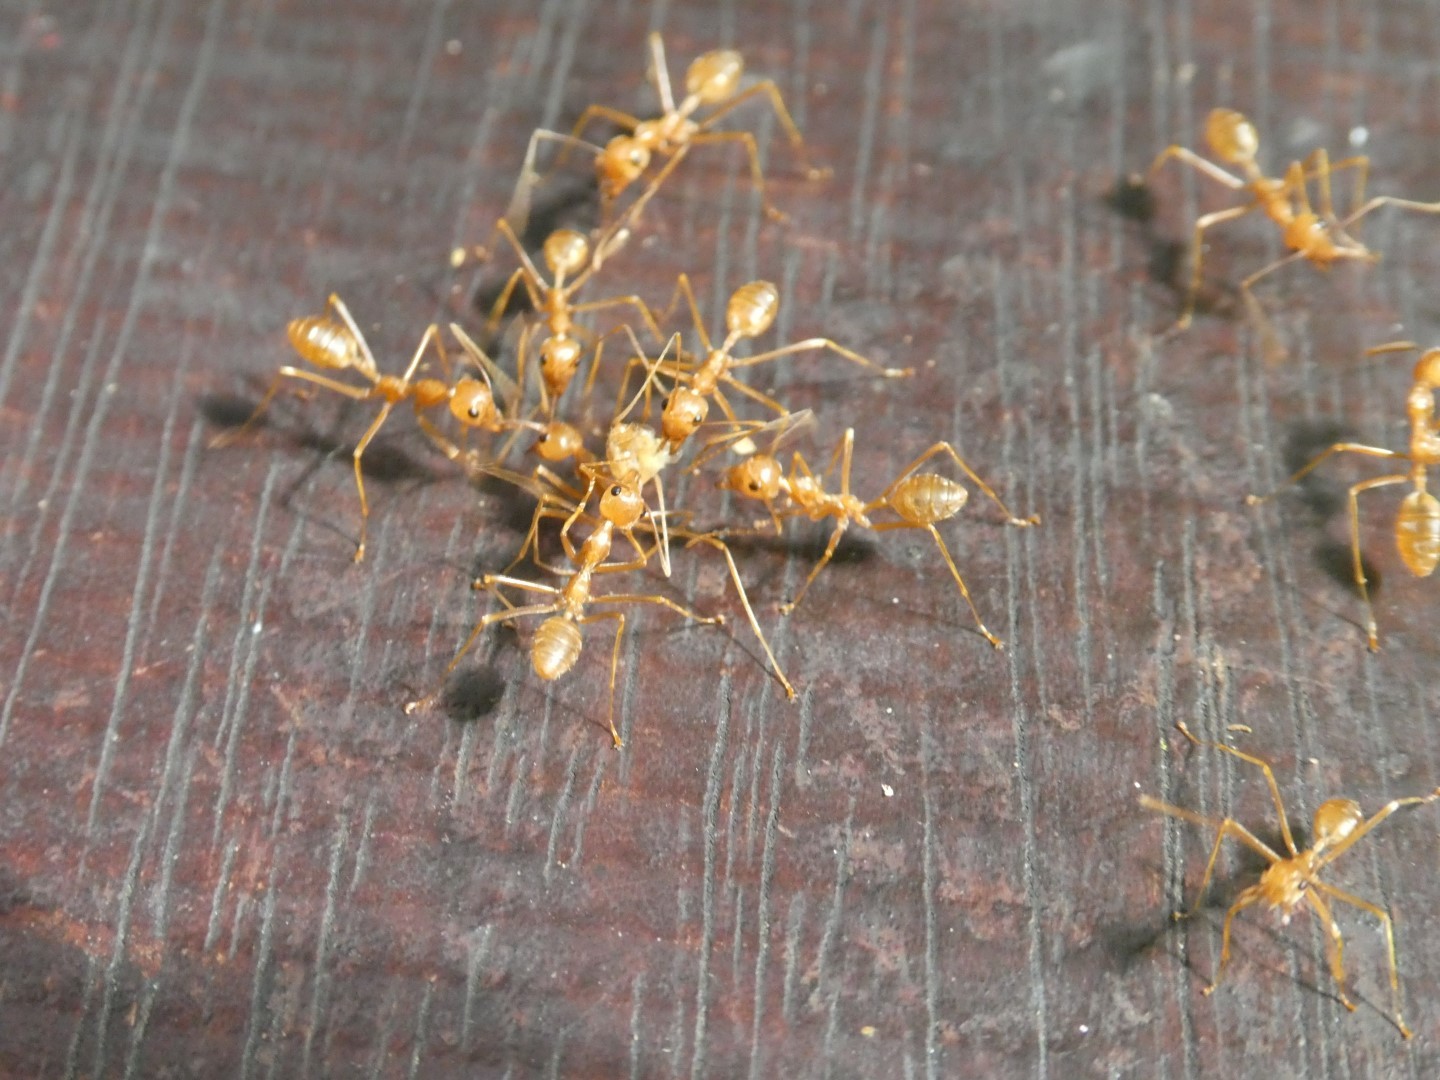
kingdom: Animalia
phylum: Arthropoda
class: Insecta
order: Hymenoptera
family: Formicidae
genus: Oecophylla
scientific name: Oecophylla smaragdina
